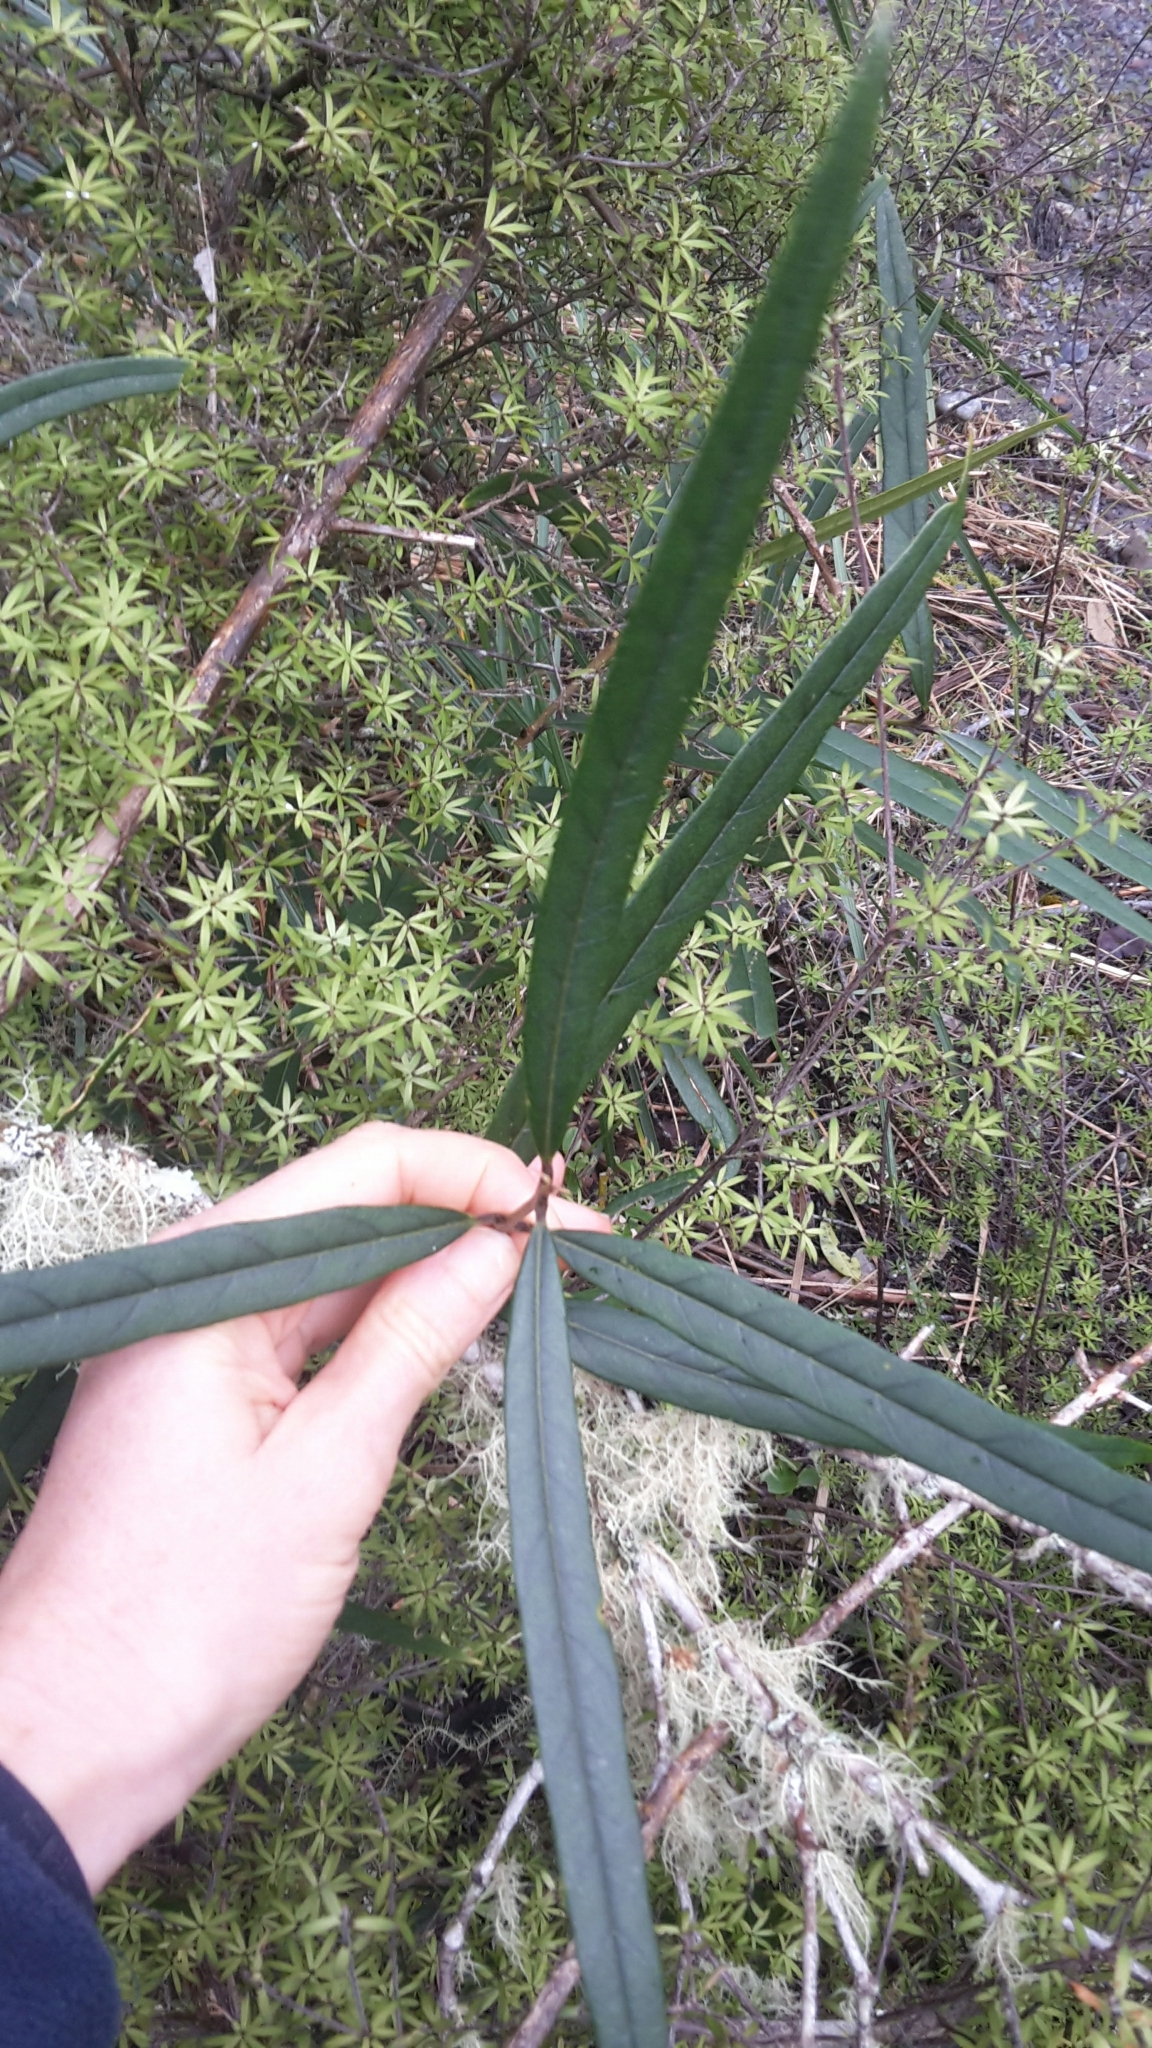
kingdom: Plantae
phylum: Tracheophyta
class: Magnoliopsida
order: Lamiales
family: Oleaceae
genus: Nestegis
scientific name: Nestegis cunninghamii
